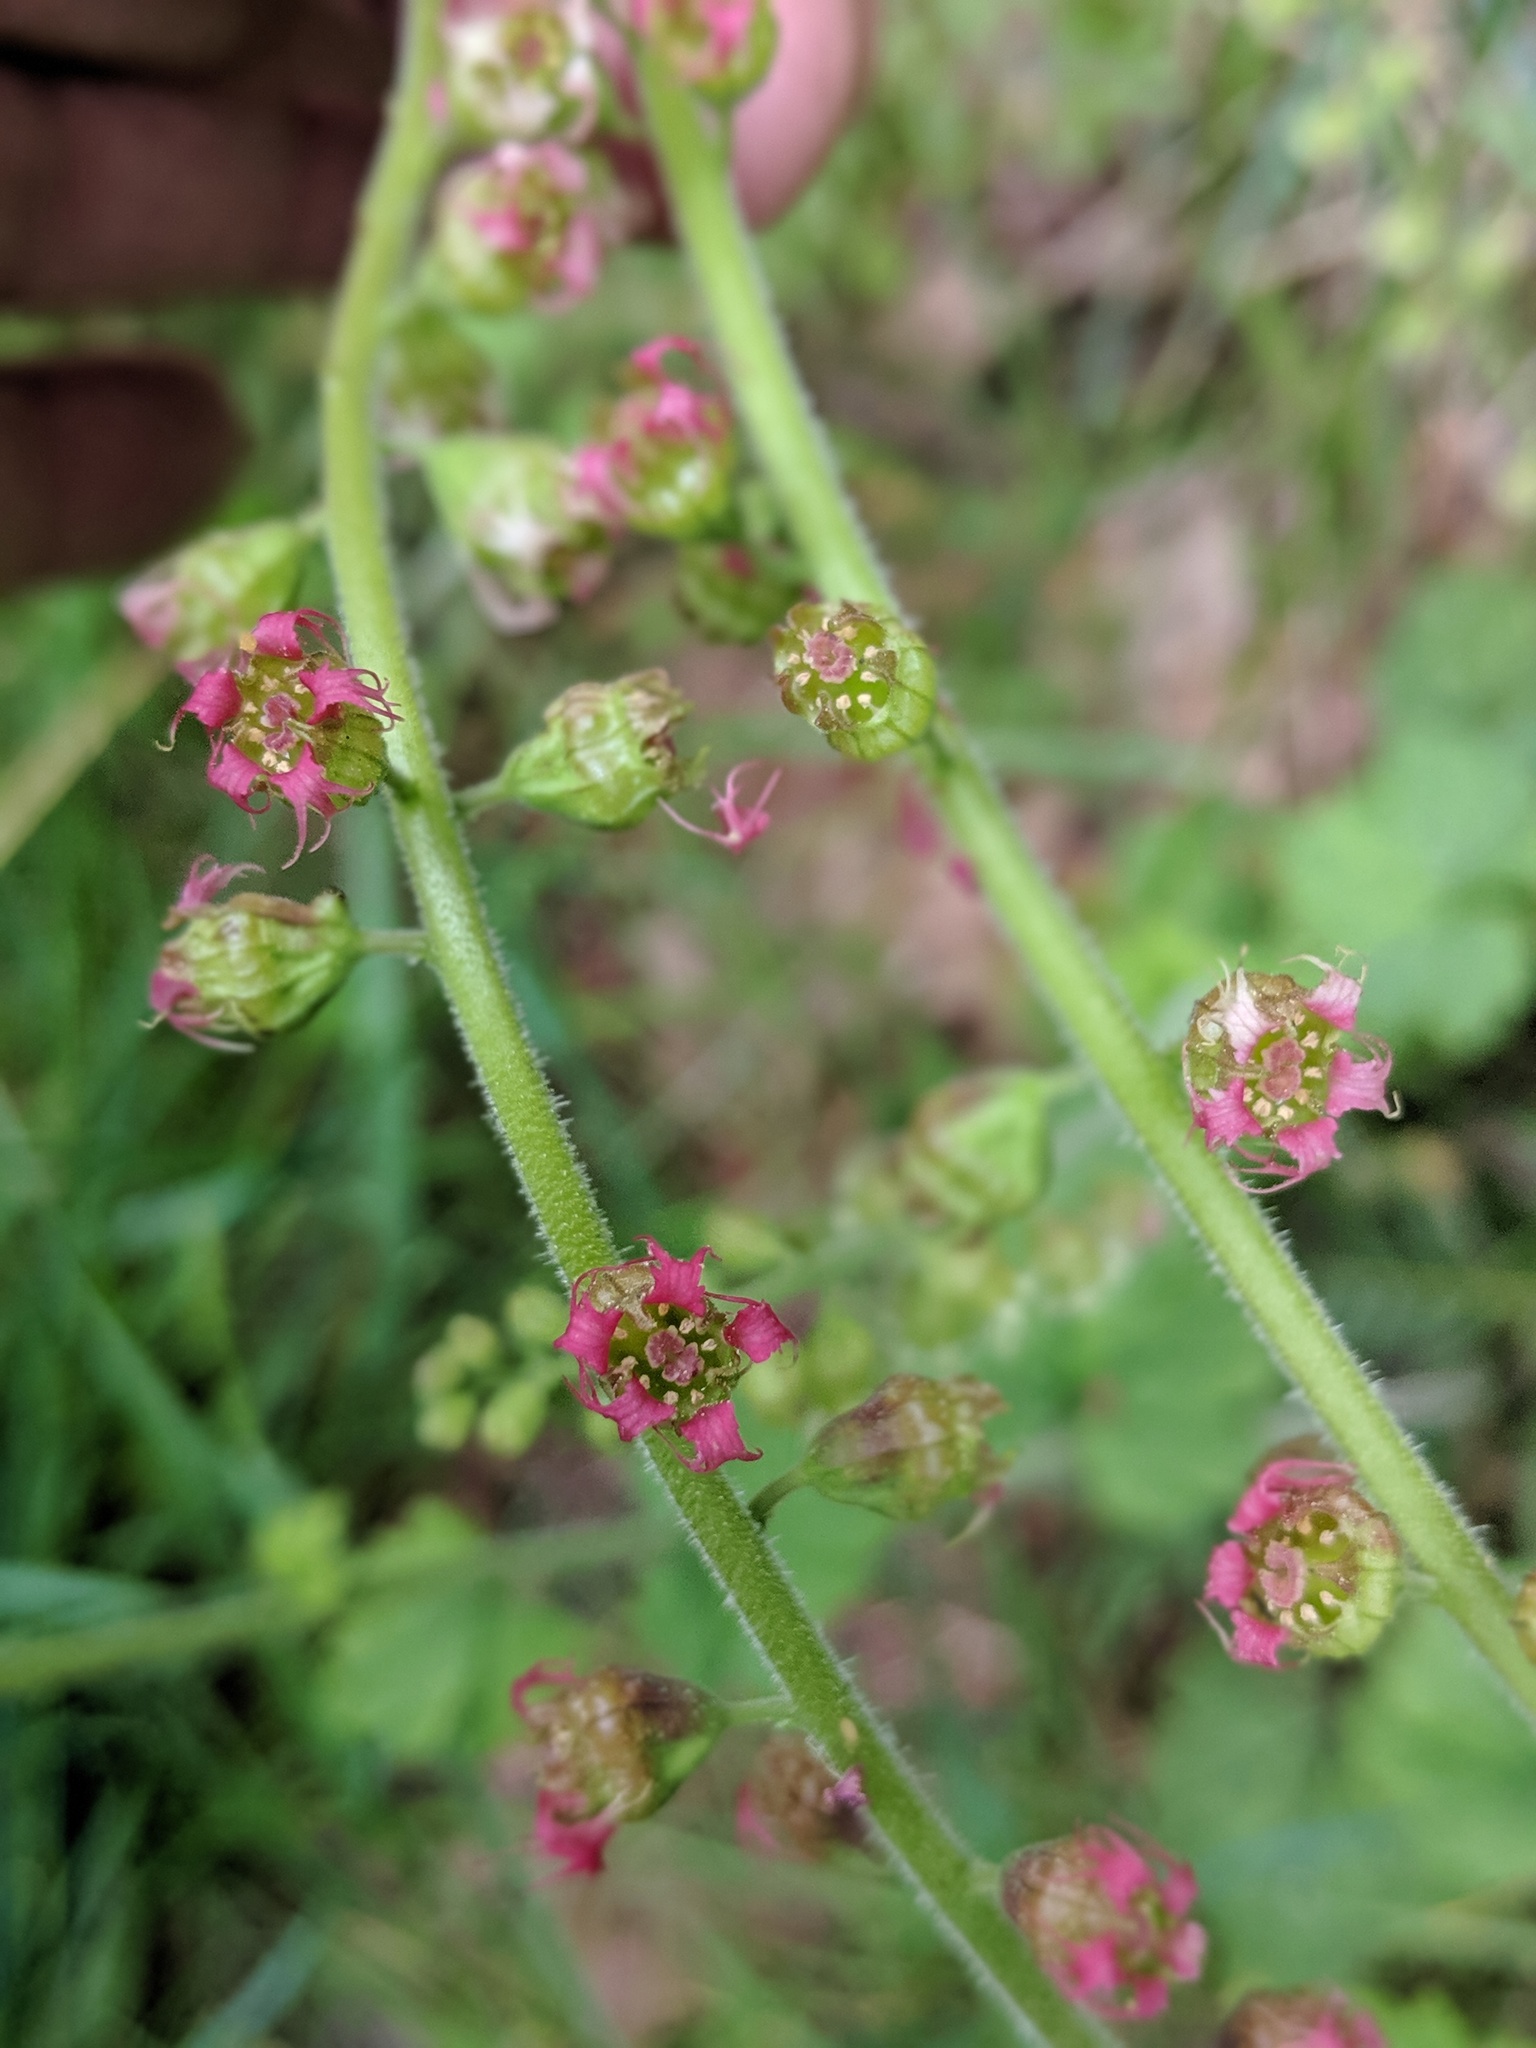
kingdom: Plantae
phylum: Tracheophyta
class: Magnoliopsida
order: Saxifragales
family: Saxifragaceae
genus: Tellima
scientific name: Tellima grandiflora
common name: Fringecups
